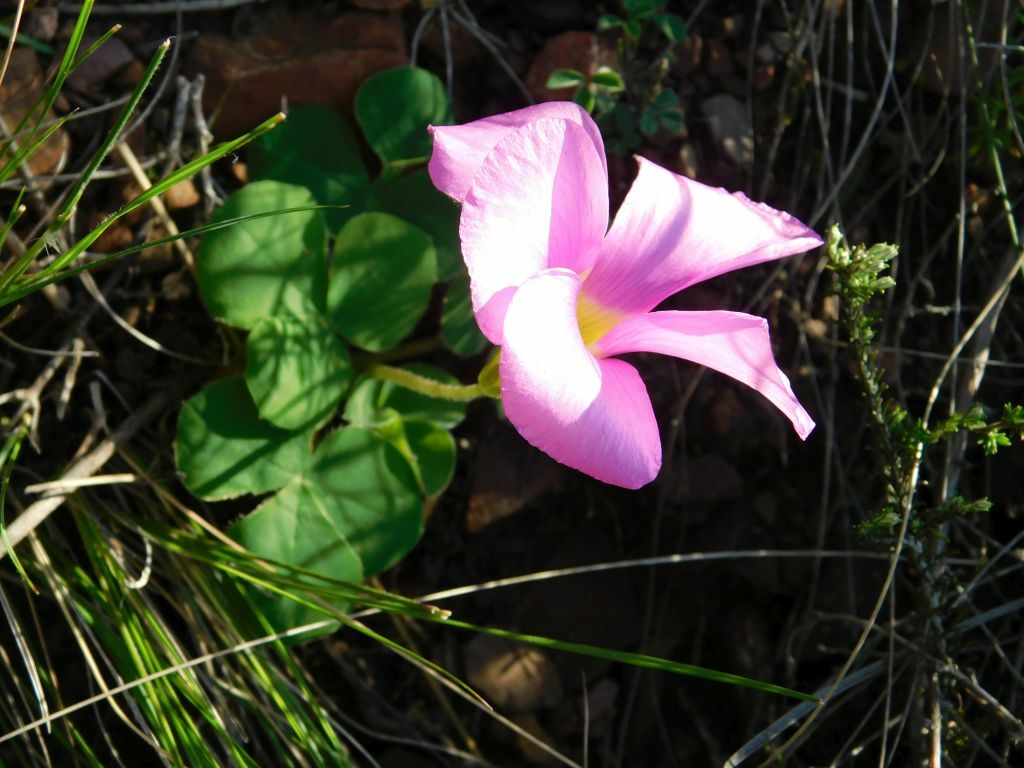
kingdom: Plantae
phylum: Tracheophyta
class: Magnoliopsida
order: Oxalidales
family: Oxalidaceae
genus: Oxalis
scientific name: Oxalis purpurea
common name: Purple woodsorrel
